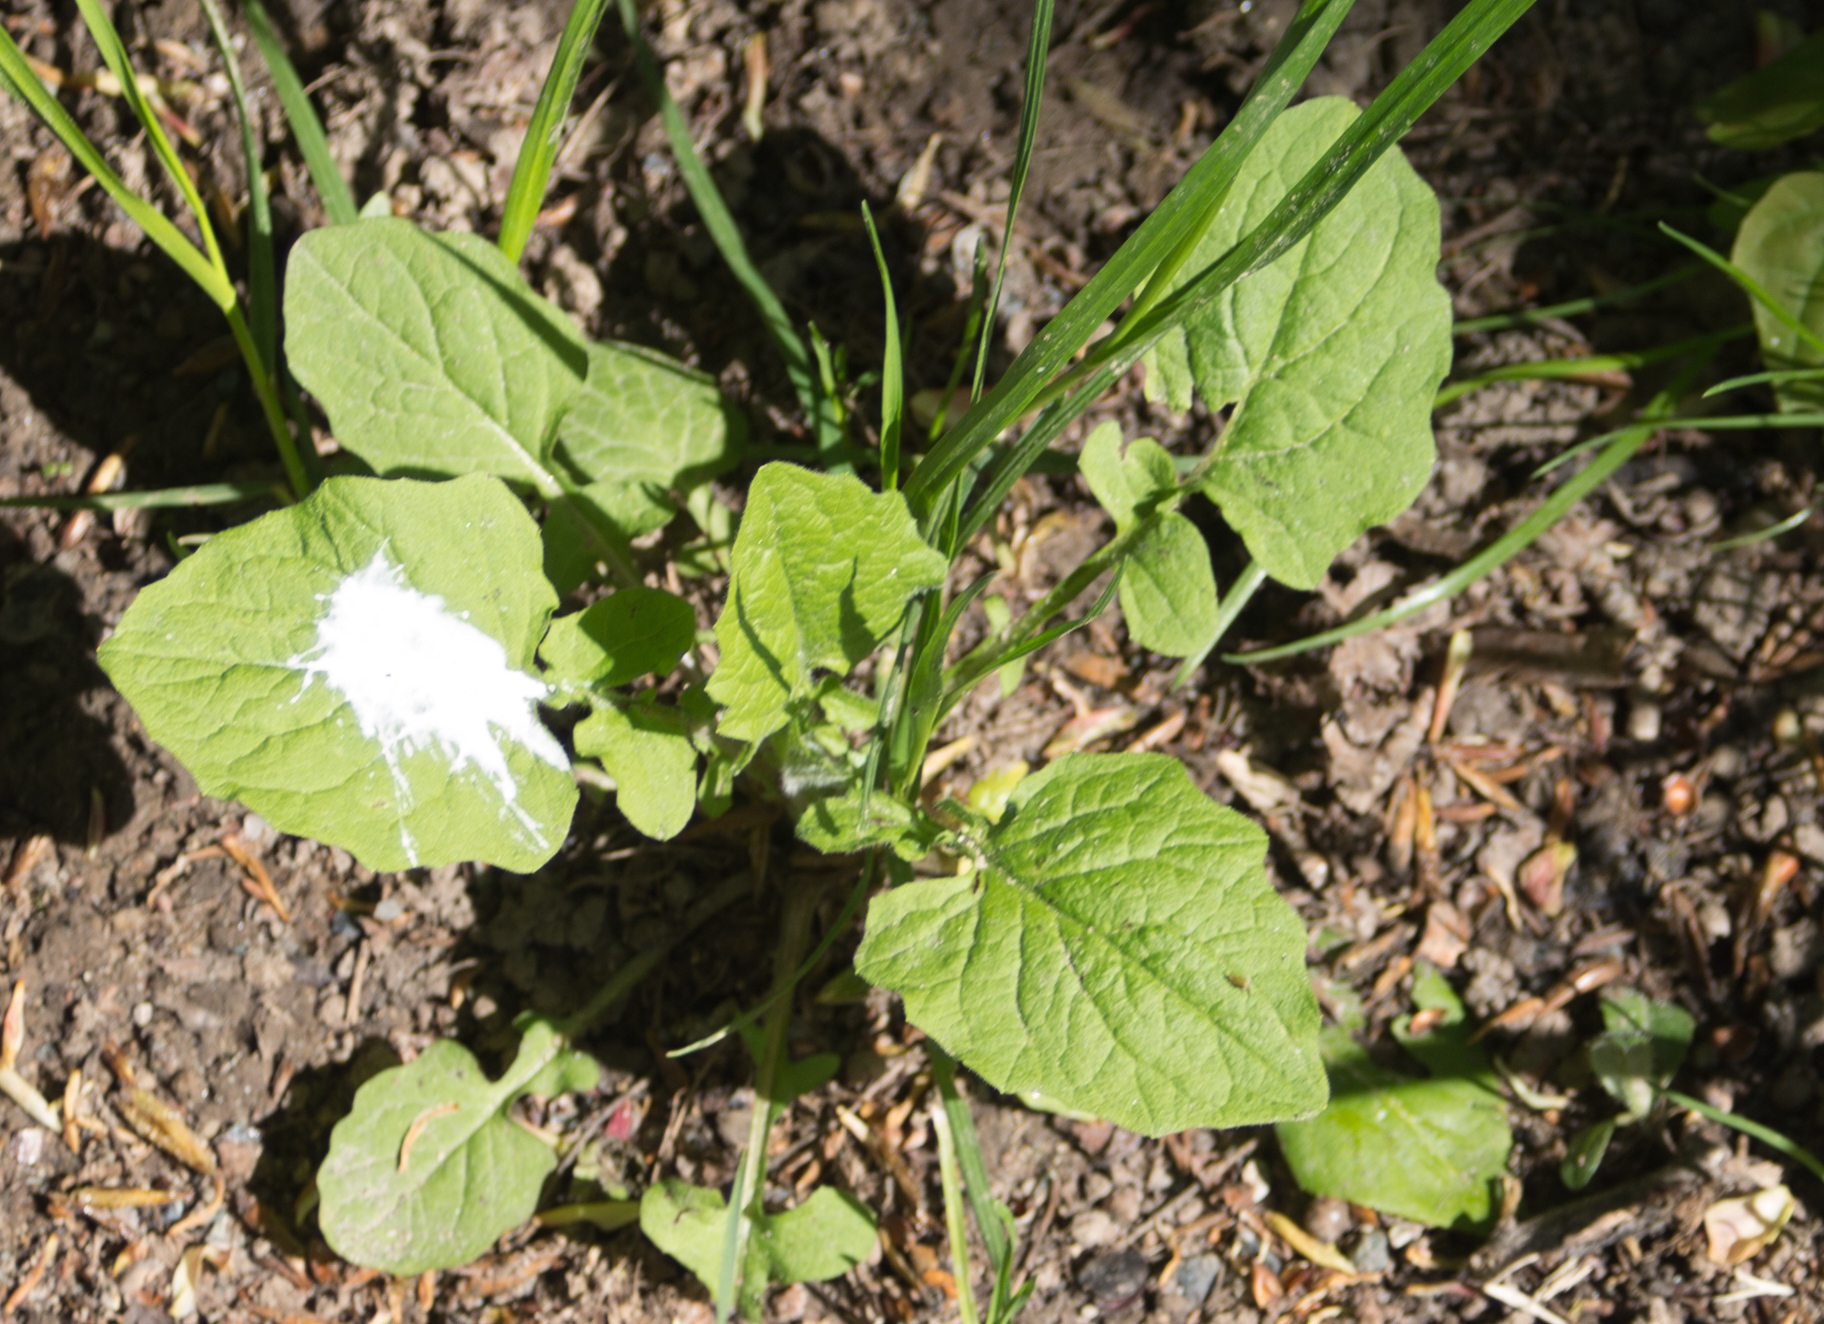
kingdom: Plantae
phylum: Tracheophyta
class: Magnoliopsida
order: Asterales
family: Asteraceae
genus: Lapsana
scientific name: Lapsana communis
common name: Nipplewort
